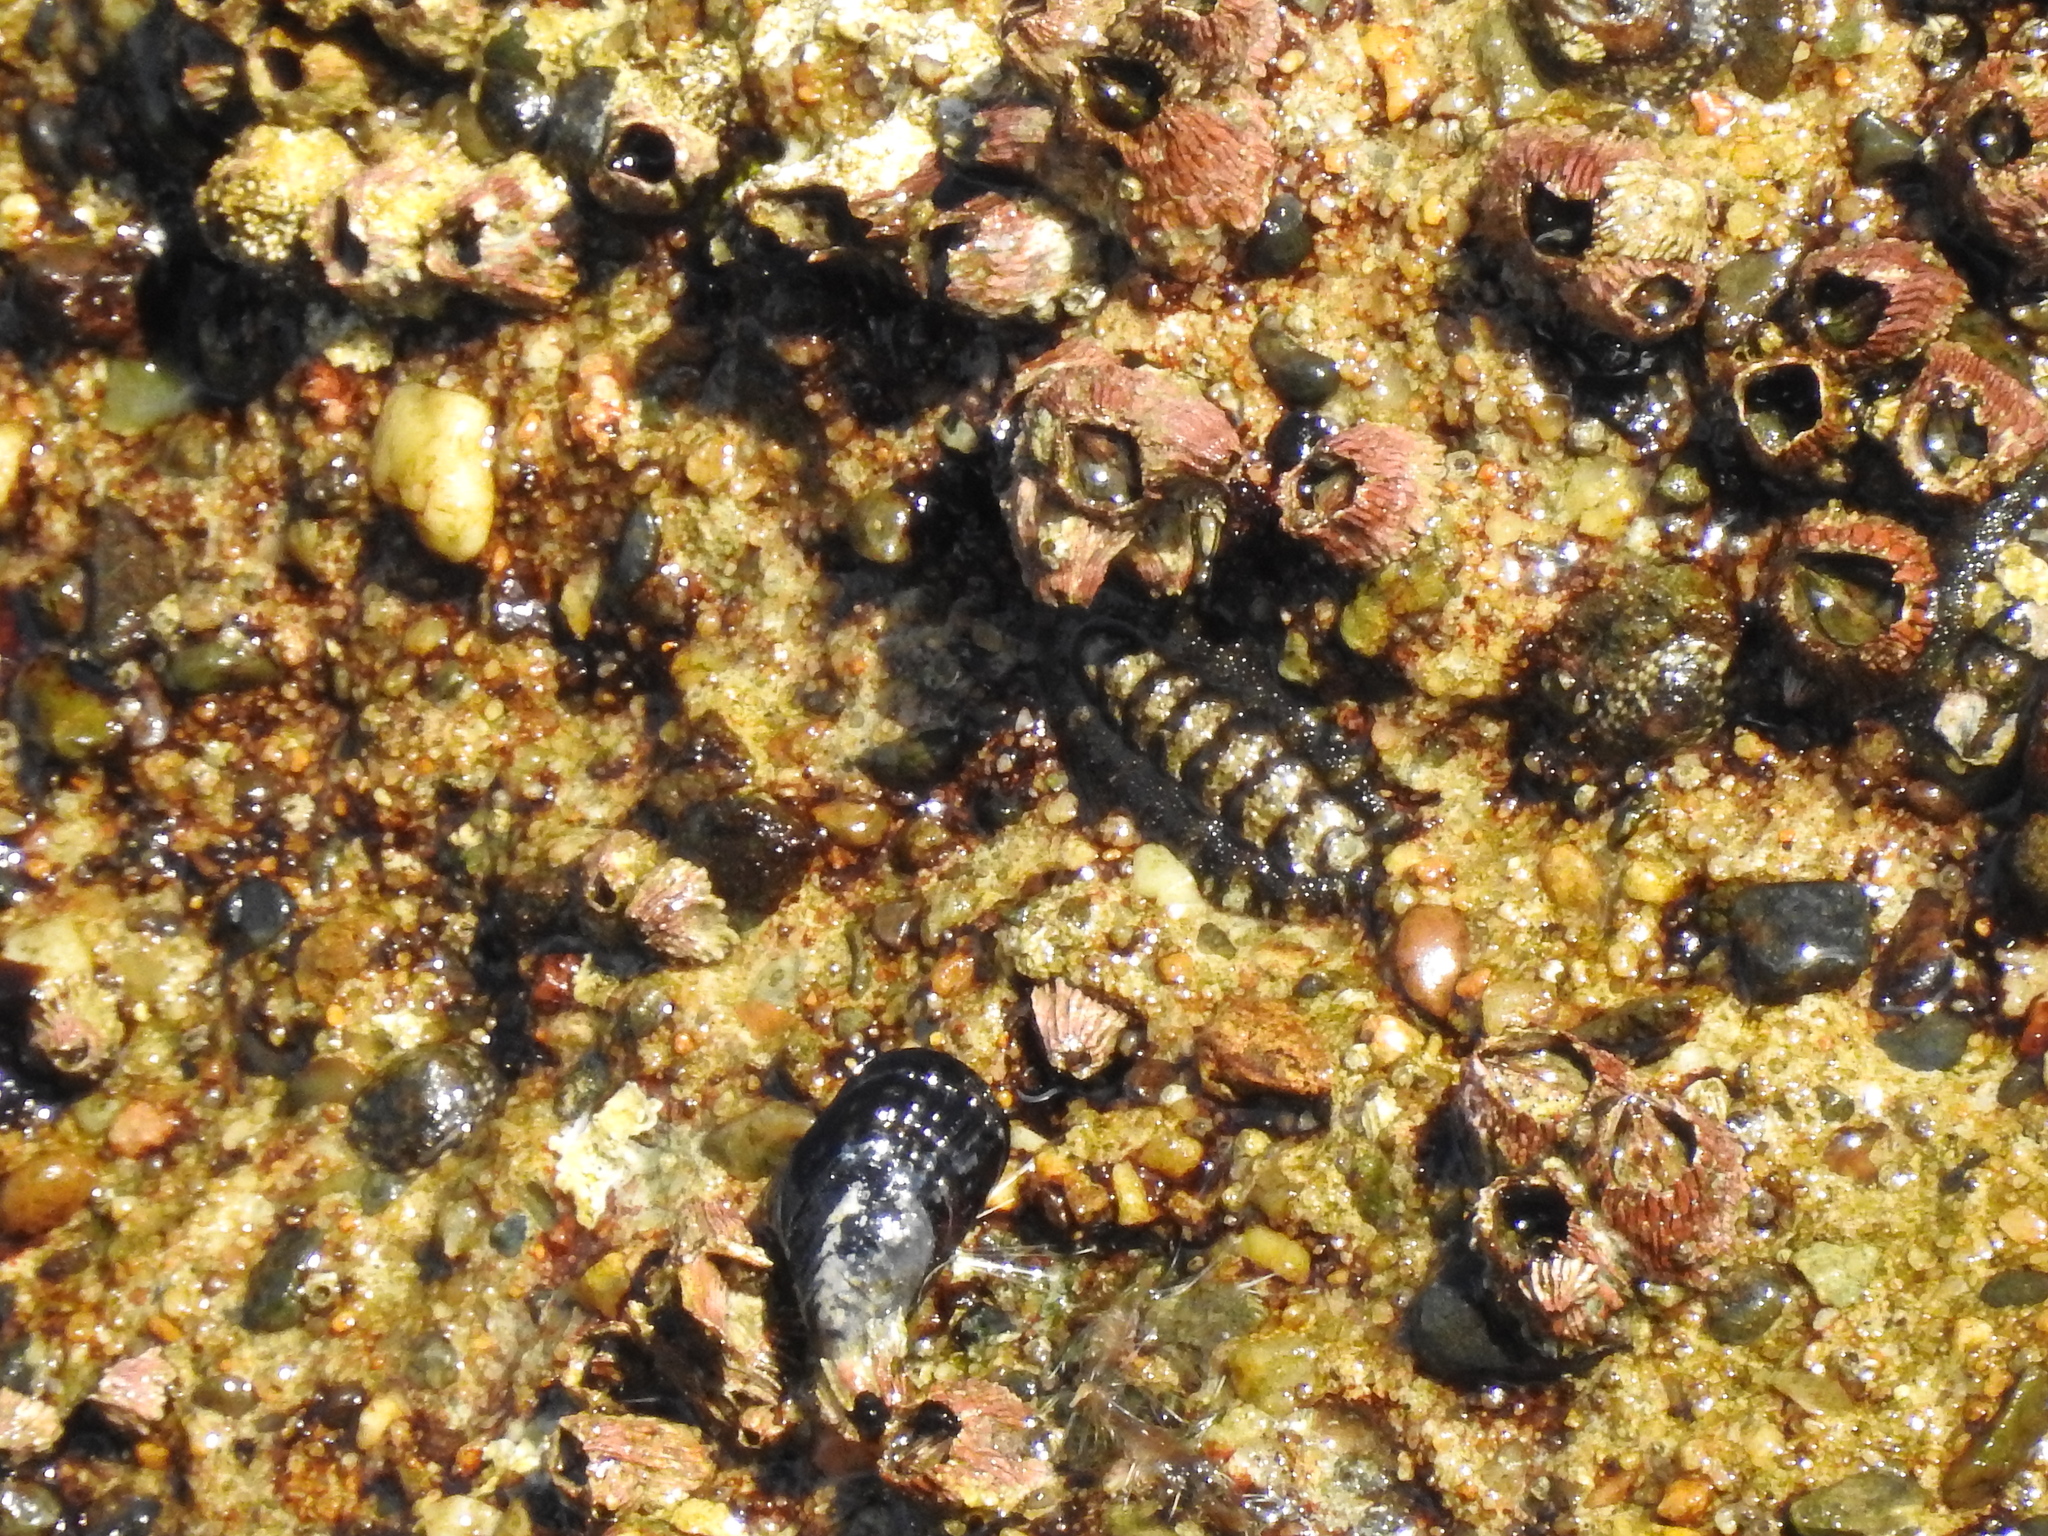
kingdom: Animalia
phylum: Mollusca
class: Polyplacophora
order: Chitonida
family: Tonicellidae
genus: Nuttallina
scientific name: Nuttallina californica
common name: California nuttall chiton
